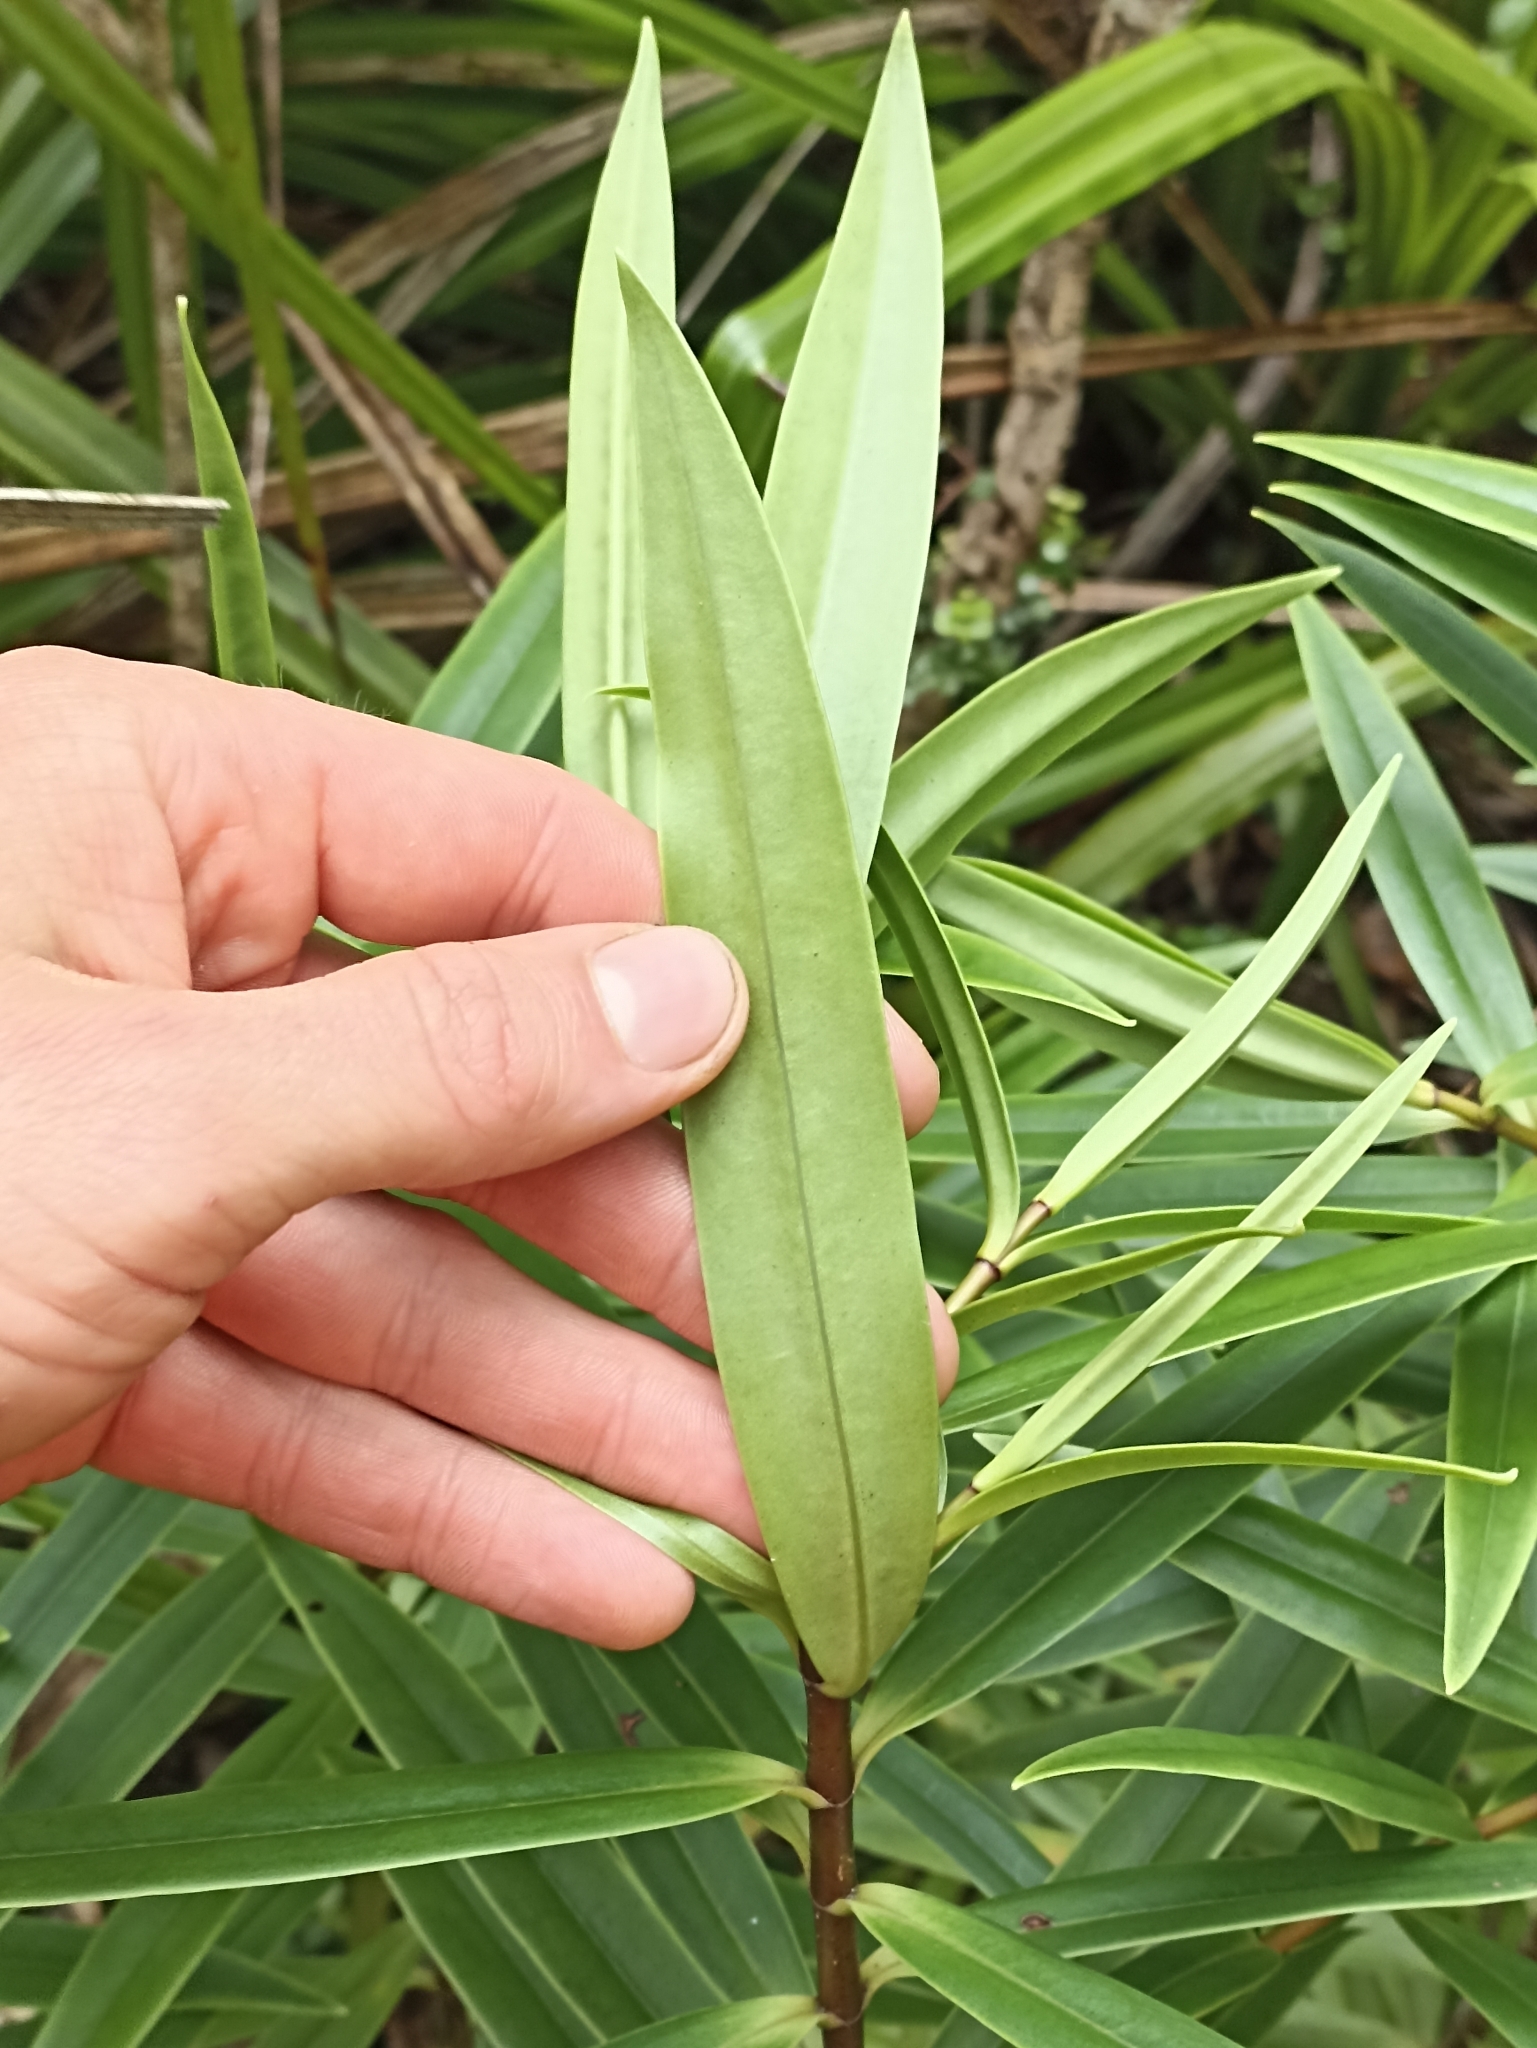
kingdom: Plantae
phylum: Tracheophyta
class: Magnoliopsida
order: Lamiales
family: Plantaginaceae
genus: Veronica
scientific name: Veronica macrocarpa
